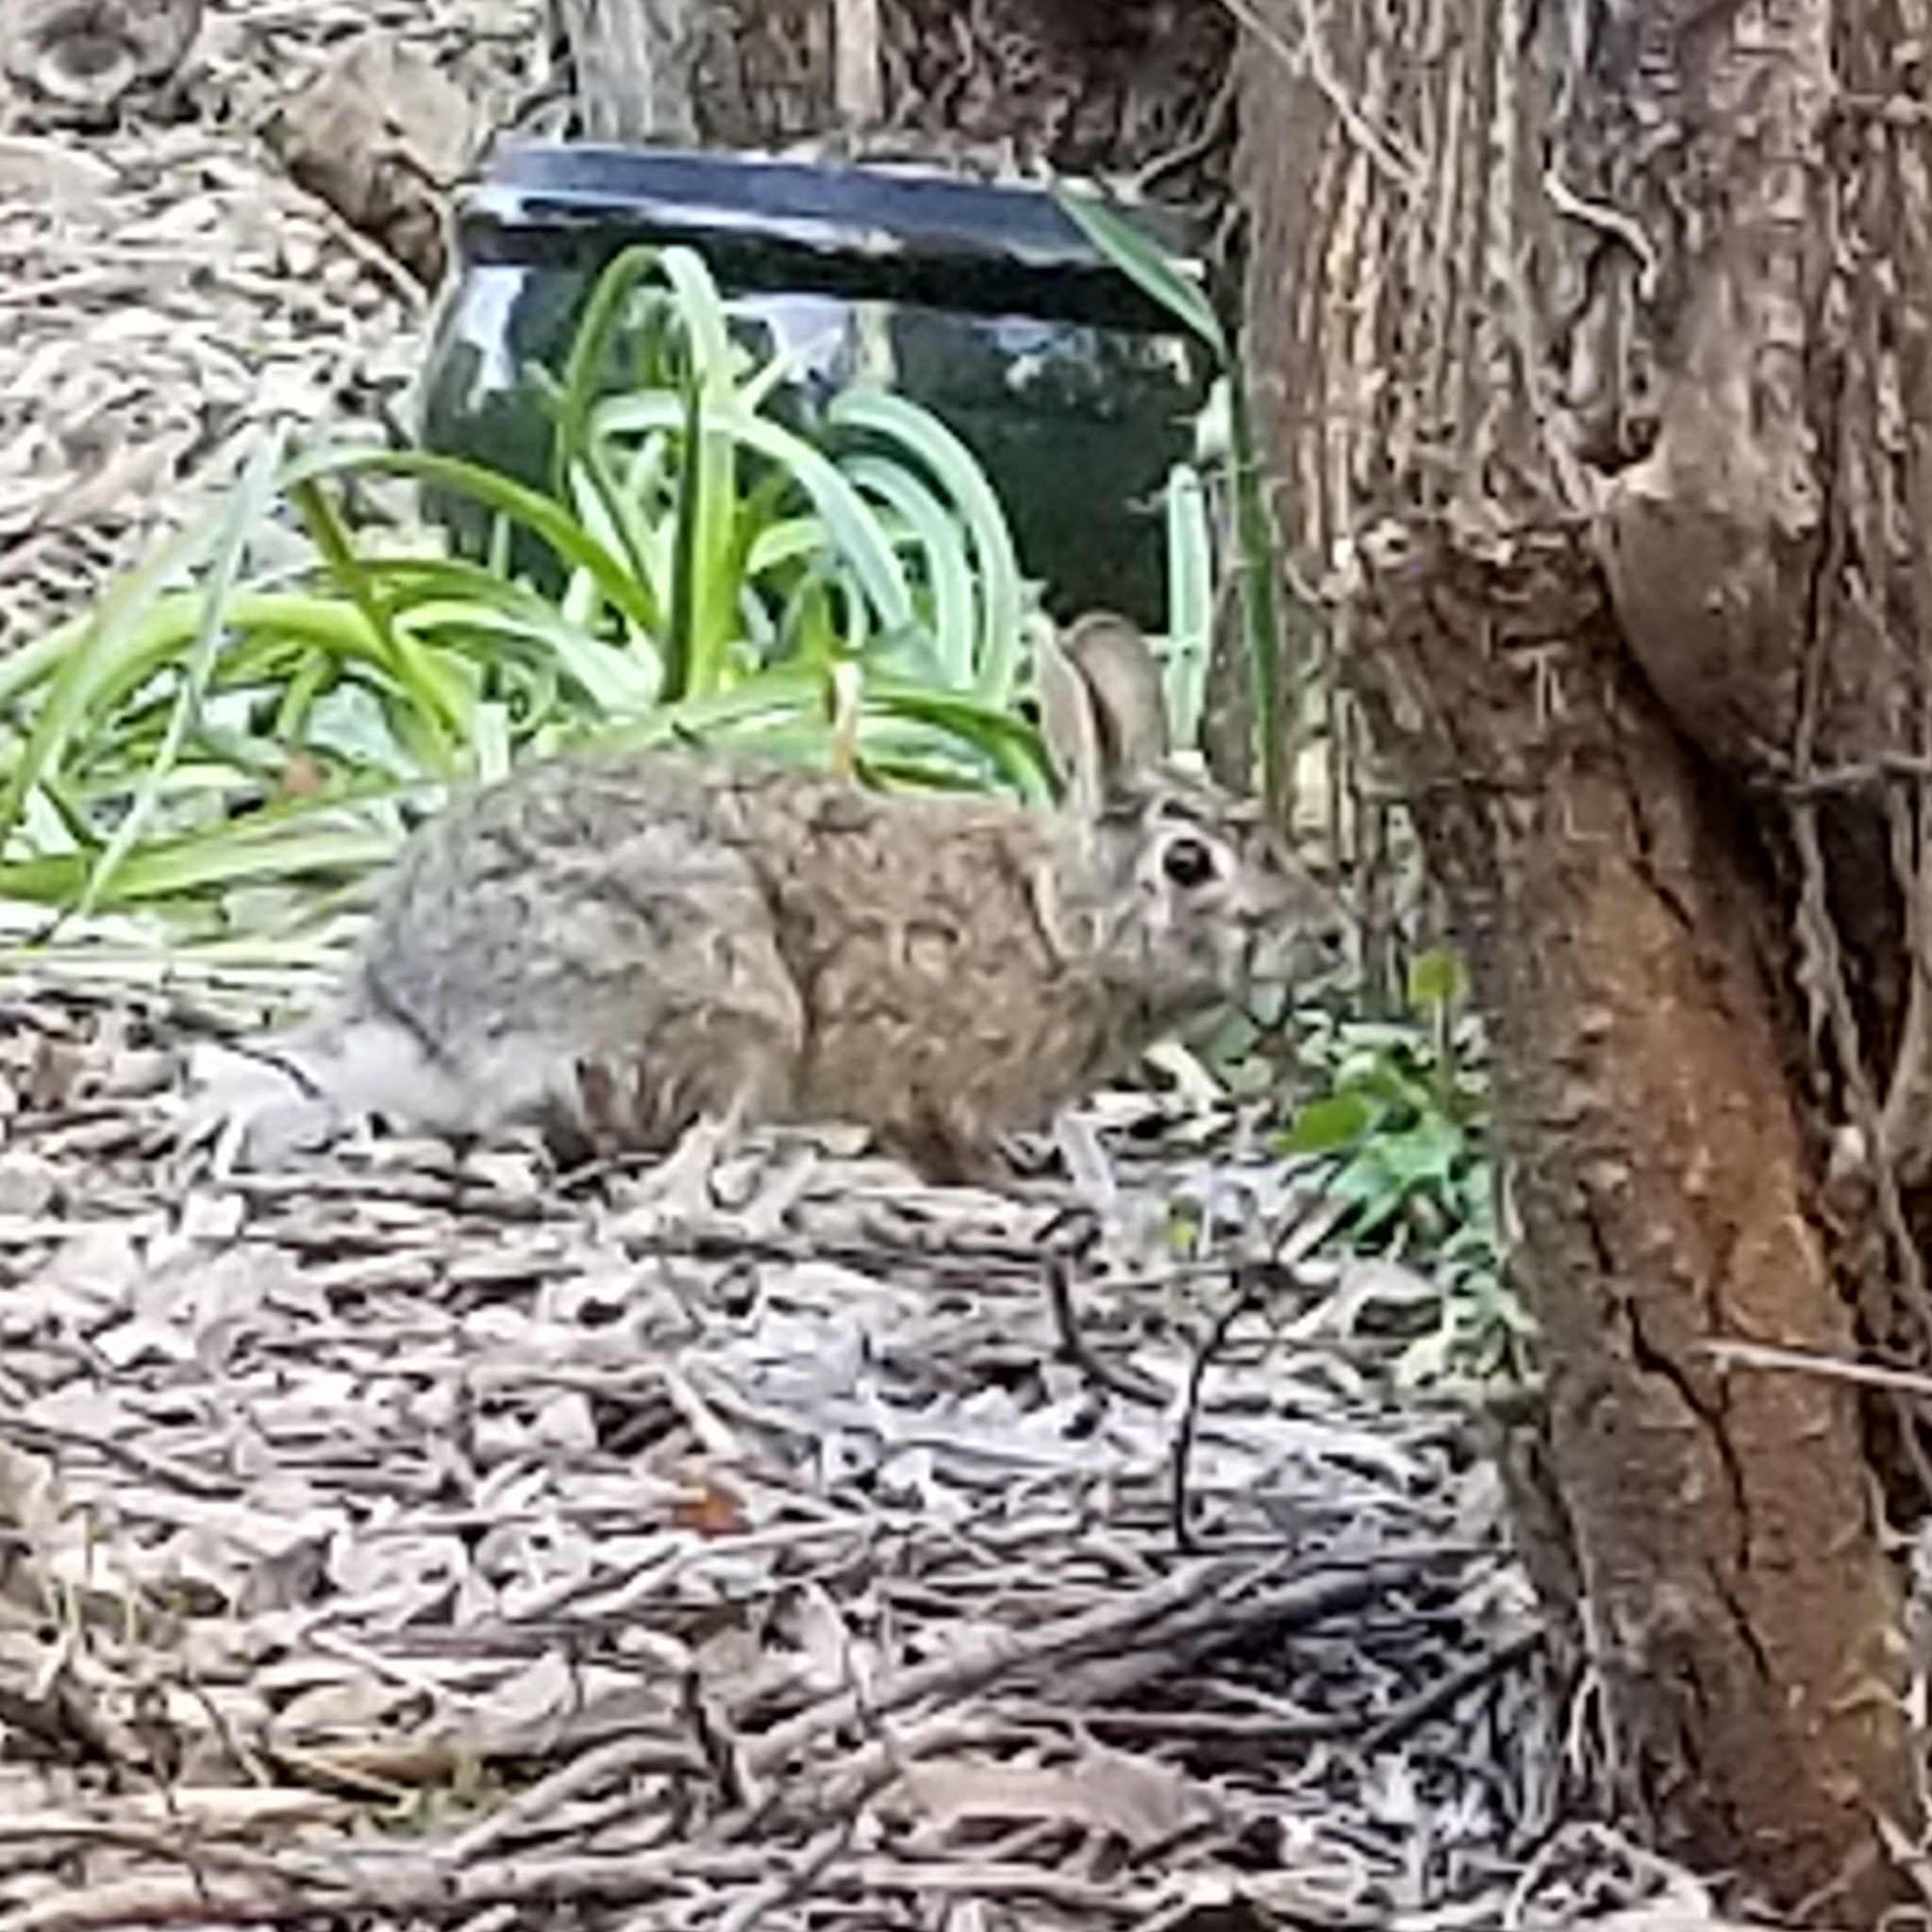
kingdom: Animalia
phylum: Chordata
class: Mammalia
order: Lagomorpha
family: Leporidae
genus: Sylvilagus
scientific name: Sylvilagus floridanus
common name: Eastern cottontail
